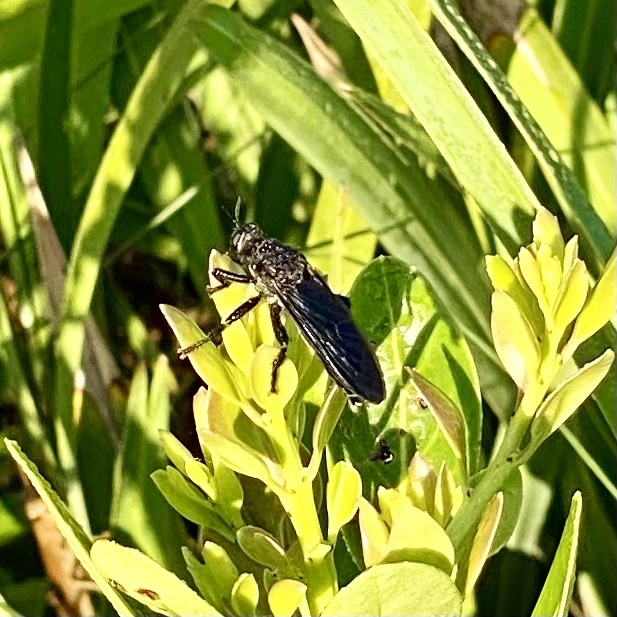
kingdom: Animalia
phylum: Arthropoda
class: Insecta
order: Diptera
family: Asilidae
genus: Prolepsis
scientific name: Prolepsis tristis
